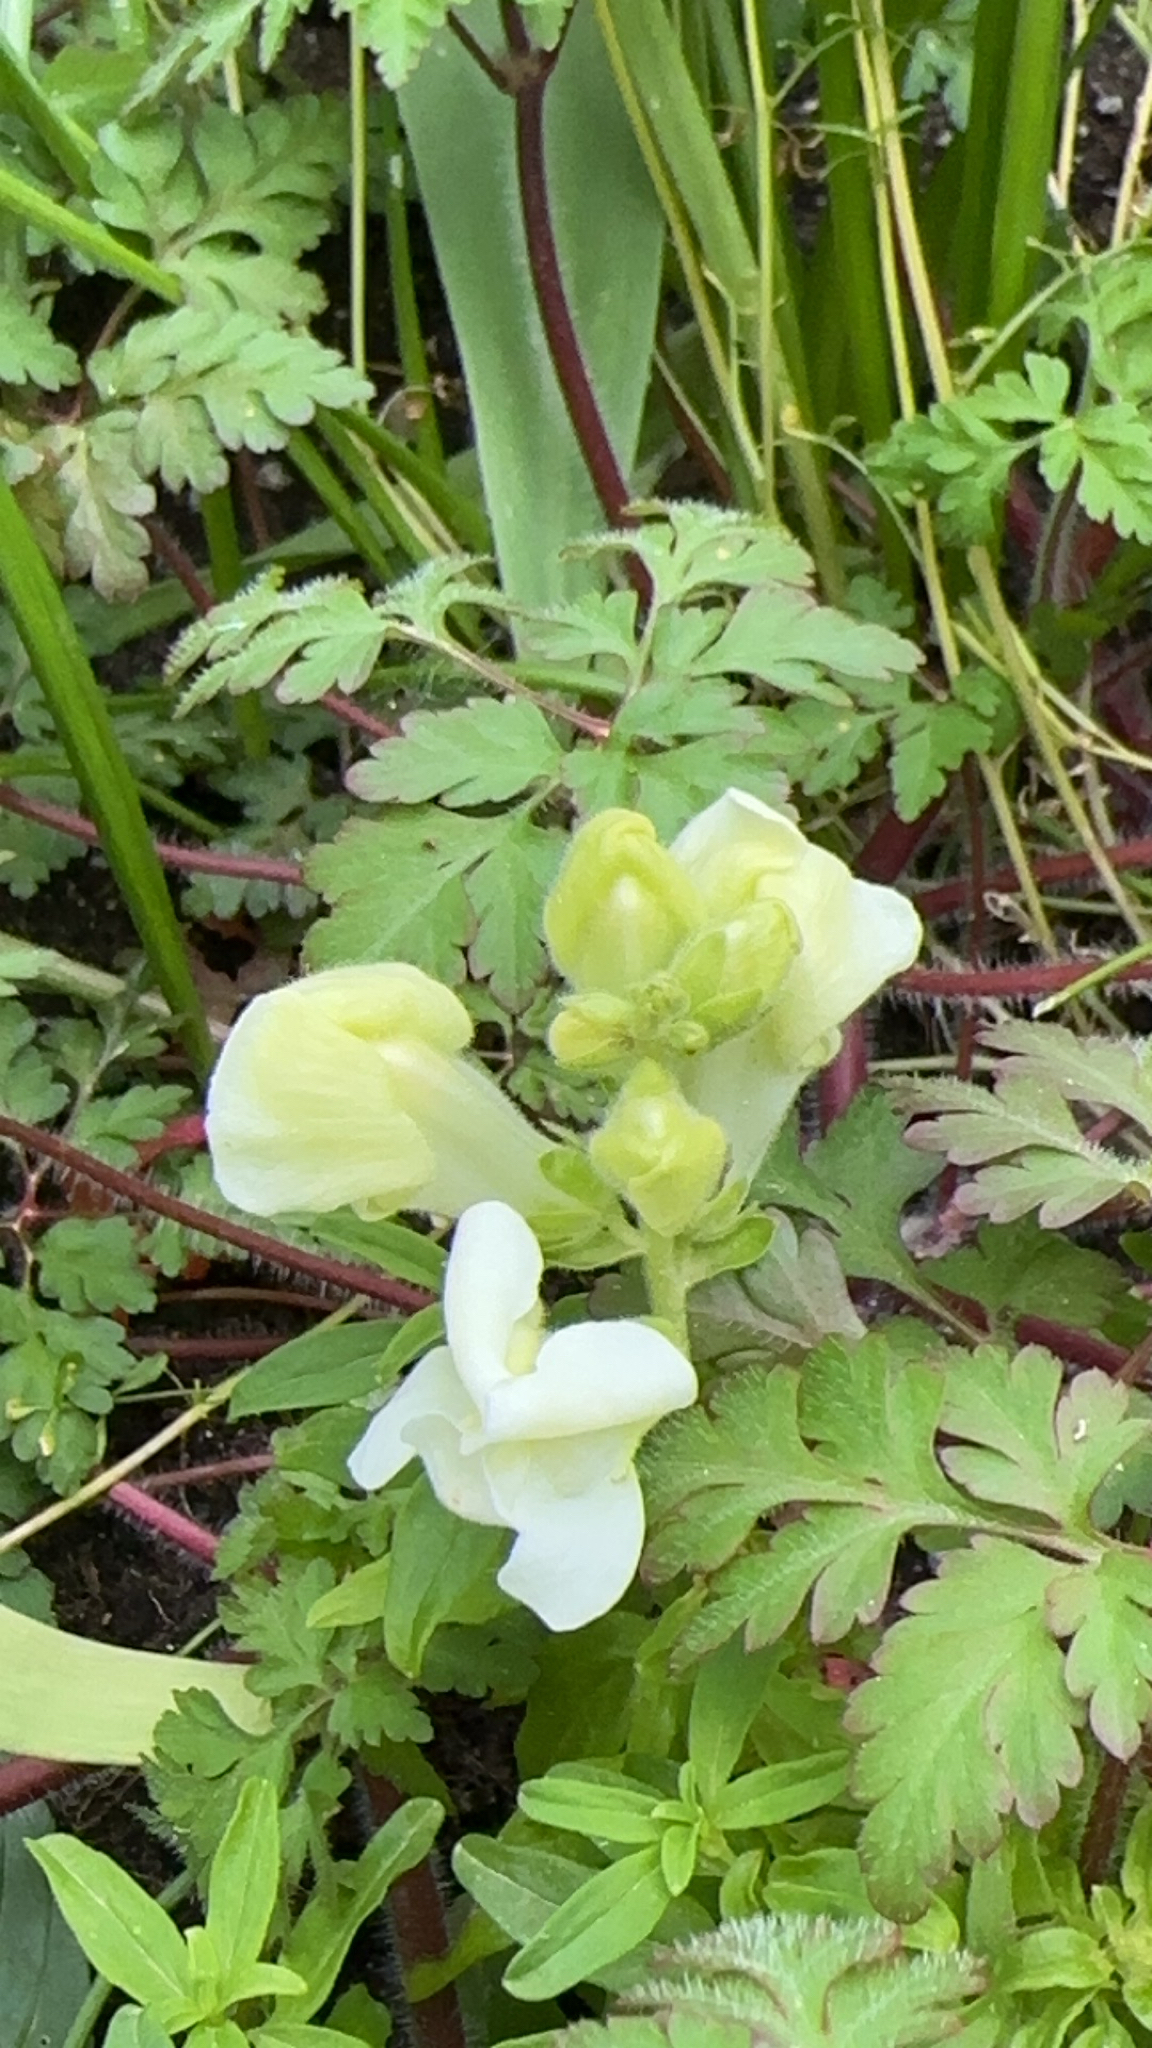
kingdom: Plantae
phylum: Tracheophyta
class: Magnoliopsida
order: Lamiales
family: Plantaginaceae
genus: Antirrhinum
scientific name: Antirrhinum majus
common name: Snapdragon
